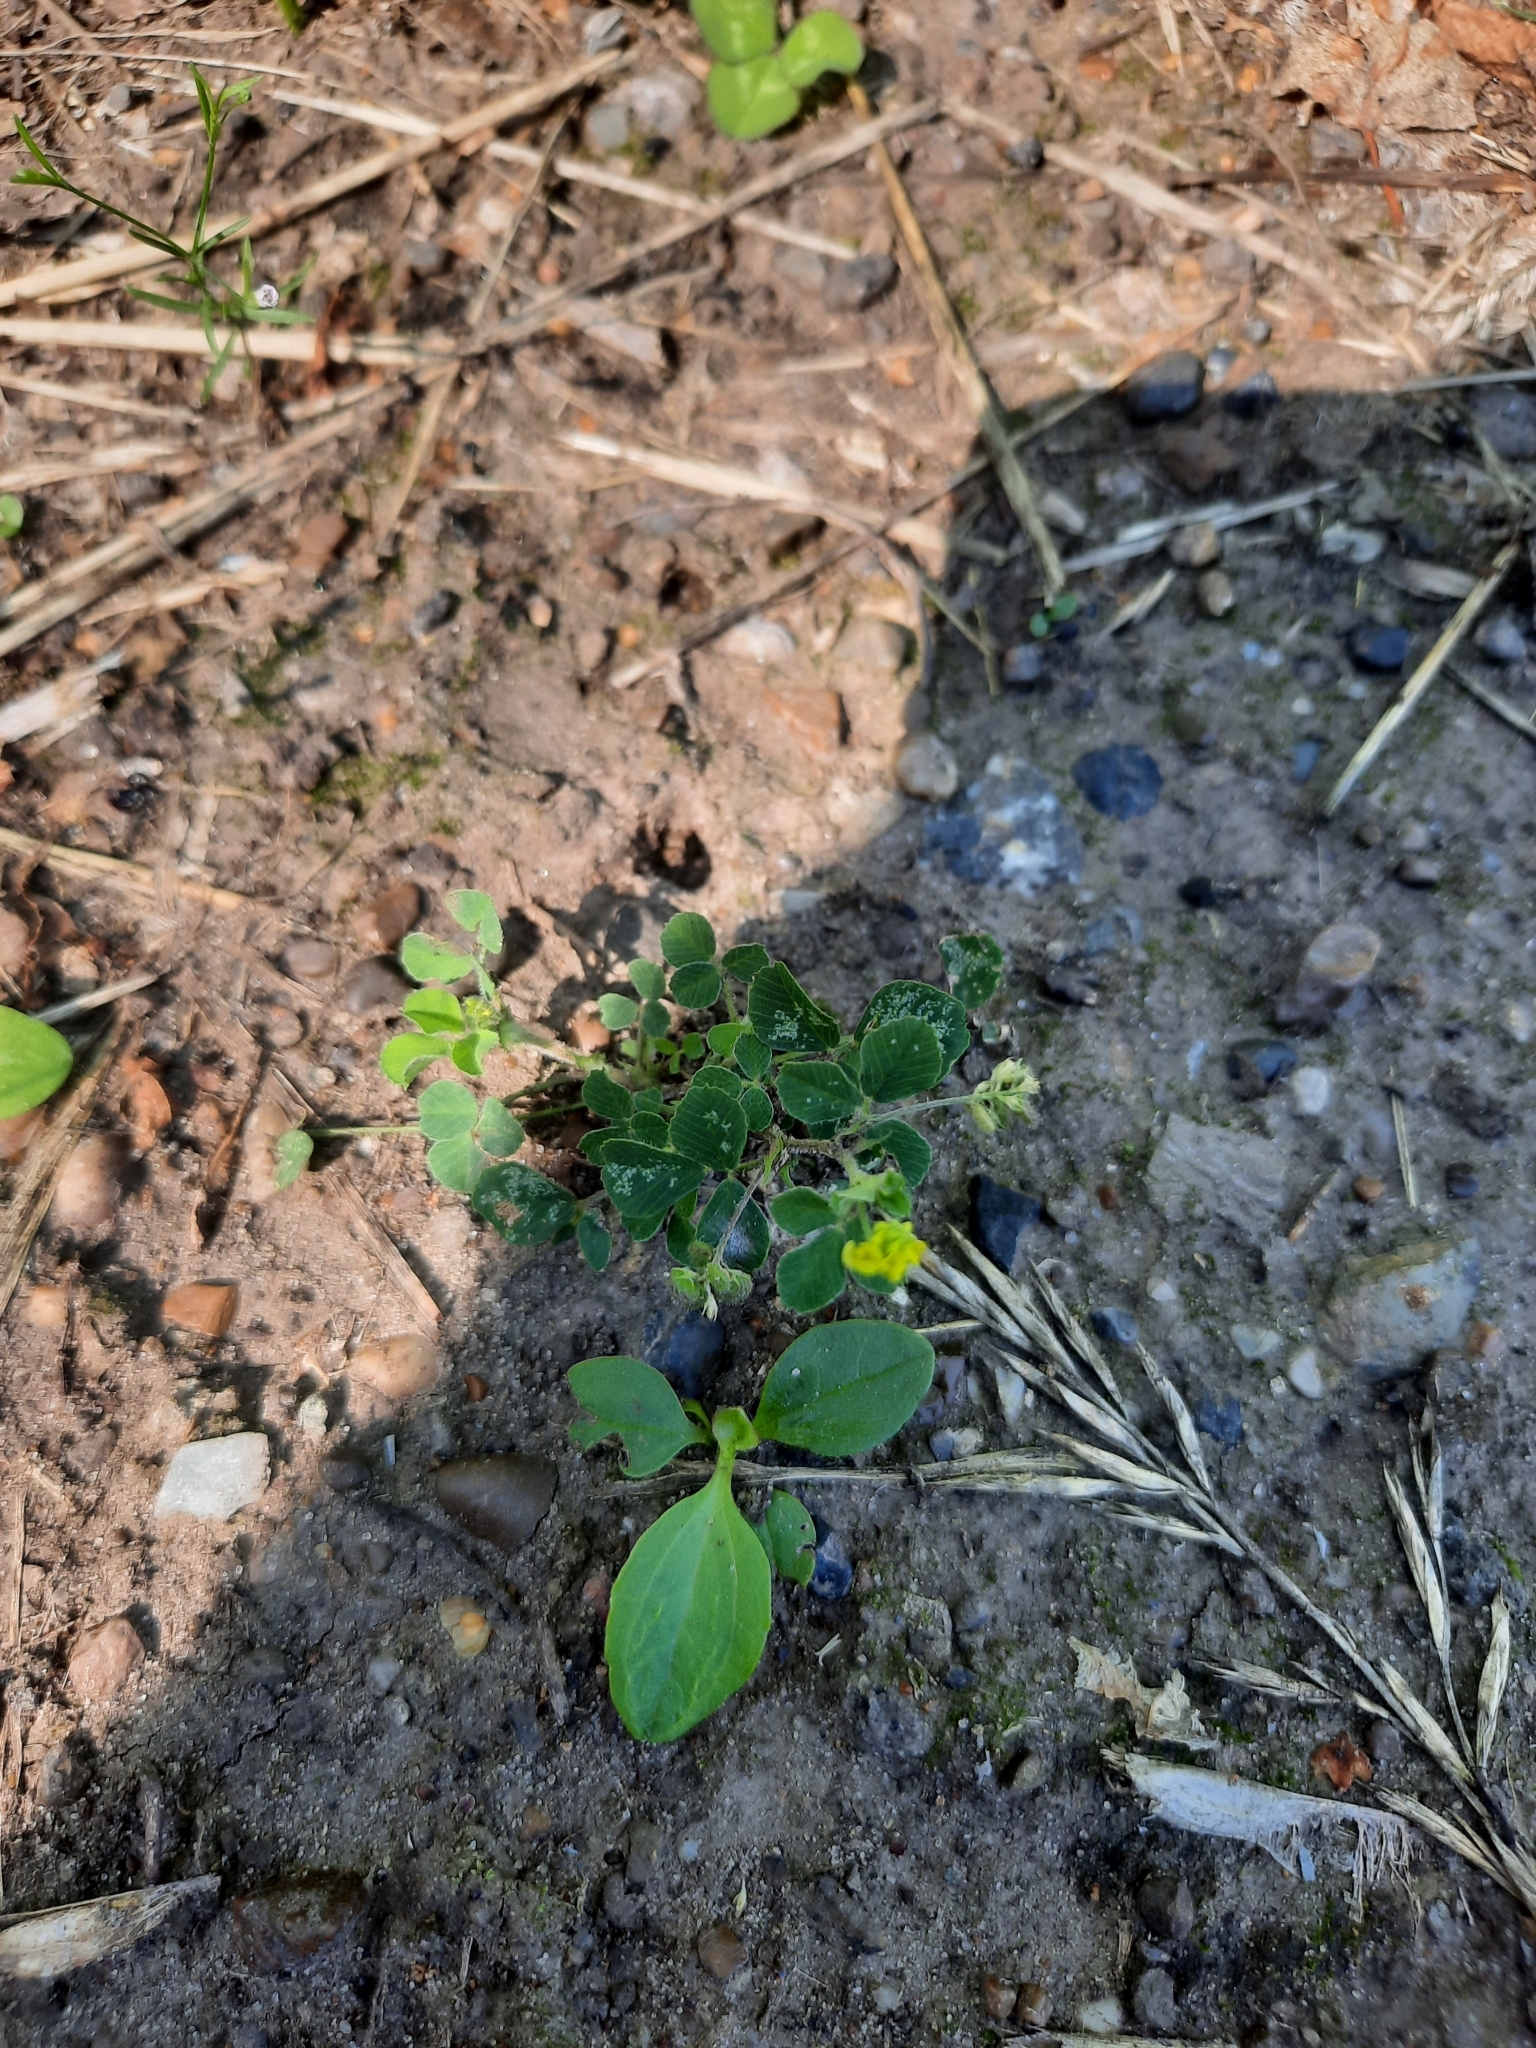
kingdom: Plantae
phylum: Tracheophyta
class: Magnoliopsida
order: Fabales
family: Fabaceae
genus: Medicago
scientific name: Medicago lupulina
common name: Black medick
